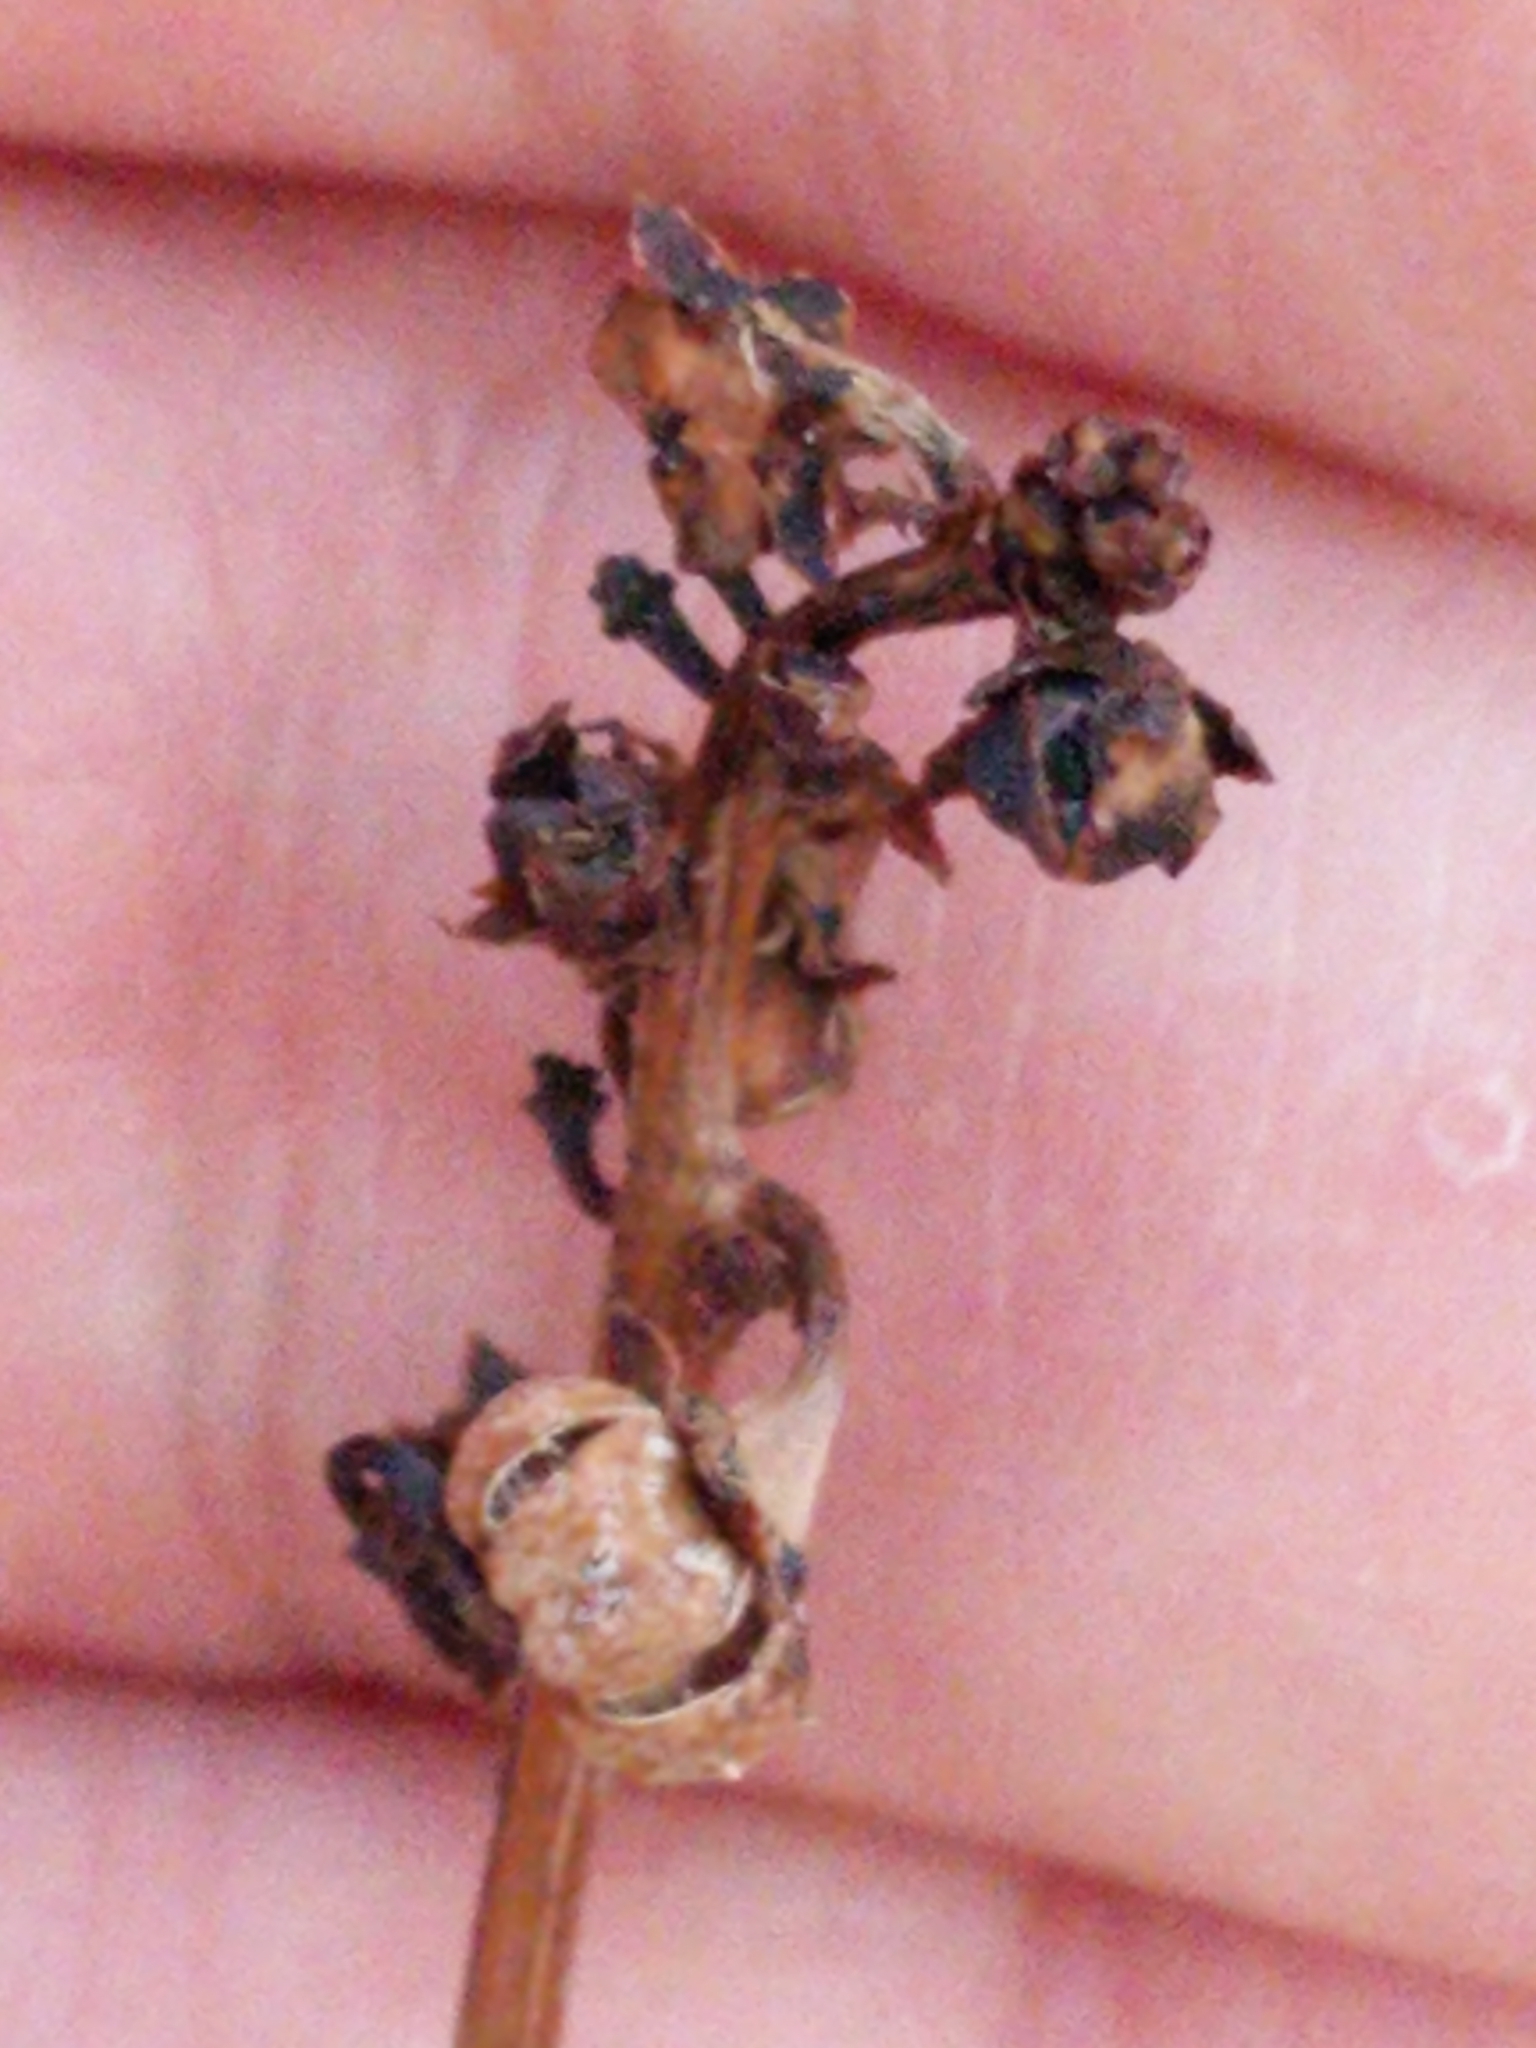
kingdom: Plantae
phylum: Tracheophyta
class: Magnoliopsida
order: Ericales
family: Ericaceae
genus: Pyrola
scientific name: Pyrola picta
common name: White-vein wintergreen
